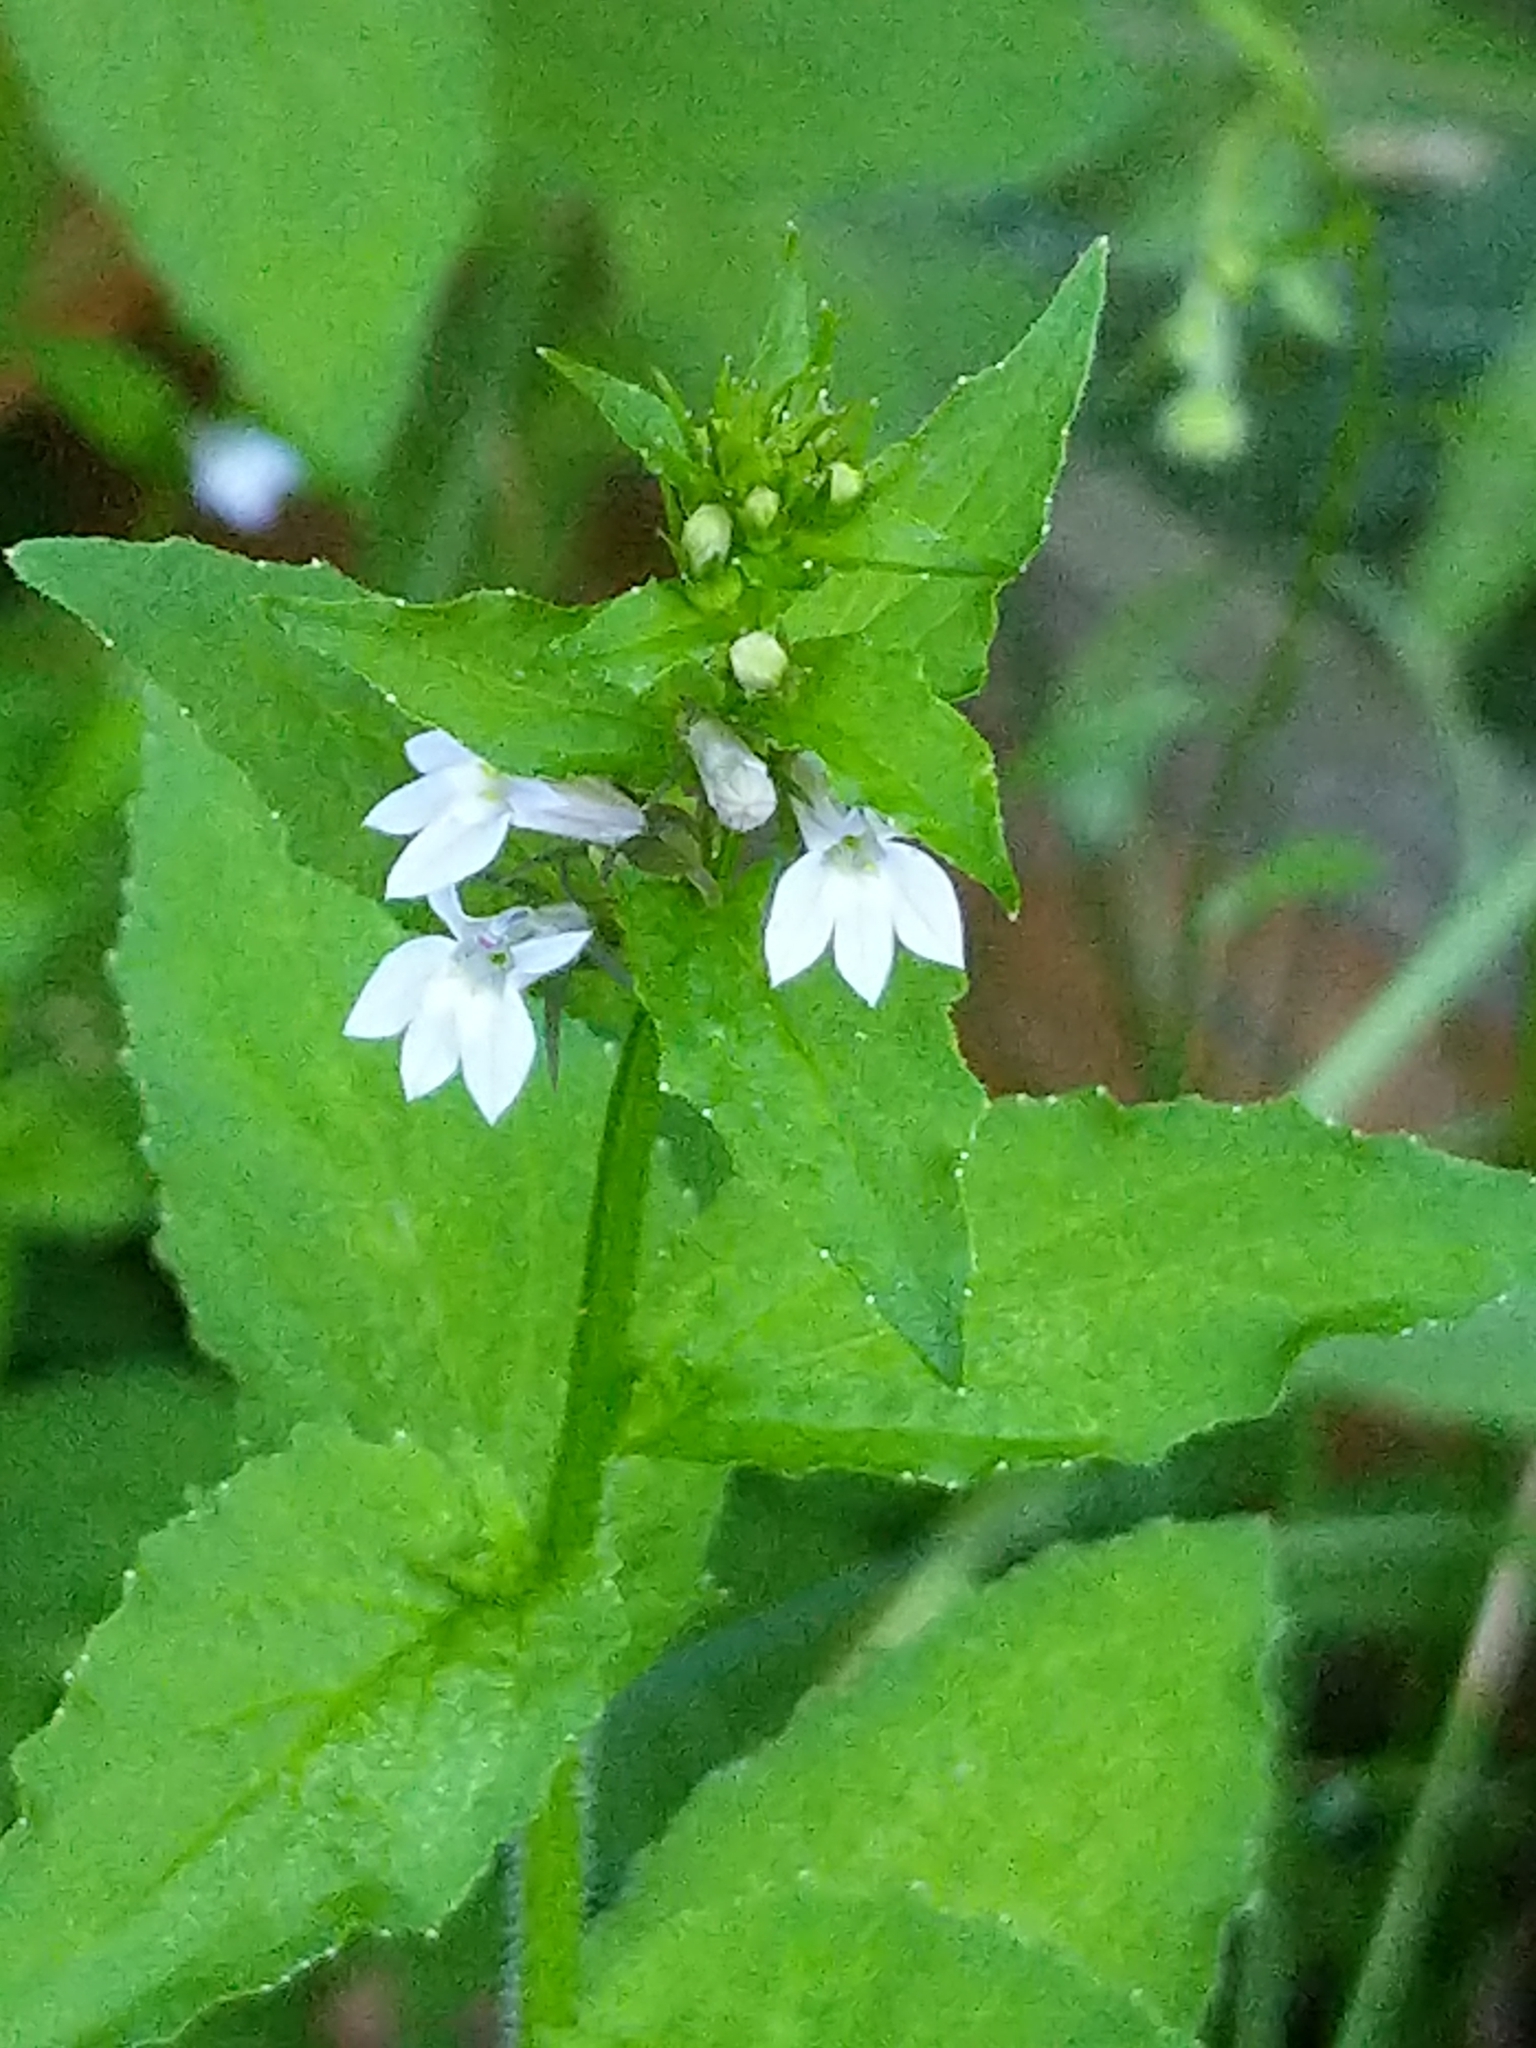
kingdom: Plantae
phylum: Tracheophyta
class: Magnoliopsida
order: Asterales
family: Campanulaceae
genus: Lobelia
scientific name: Lobelia inflata
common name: Indian tobacco
